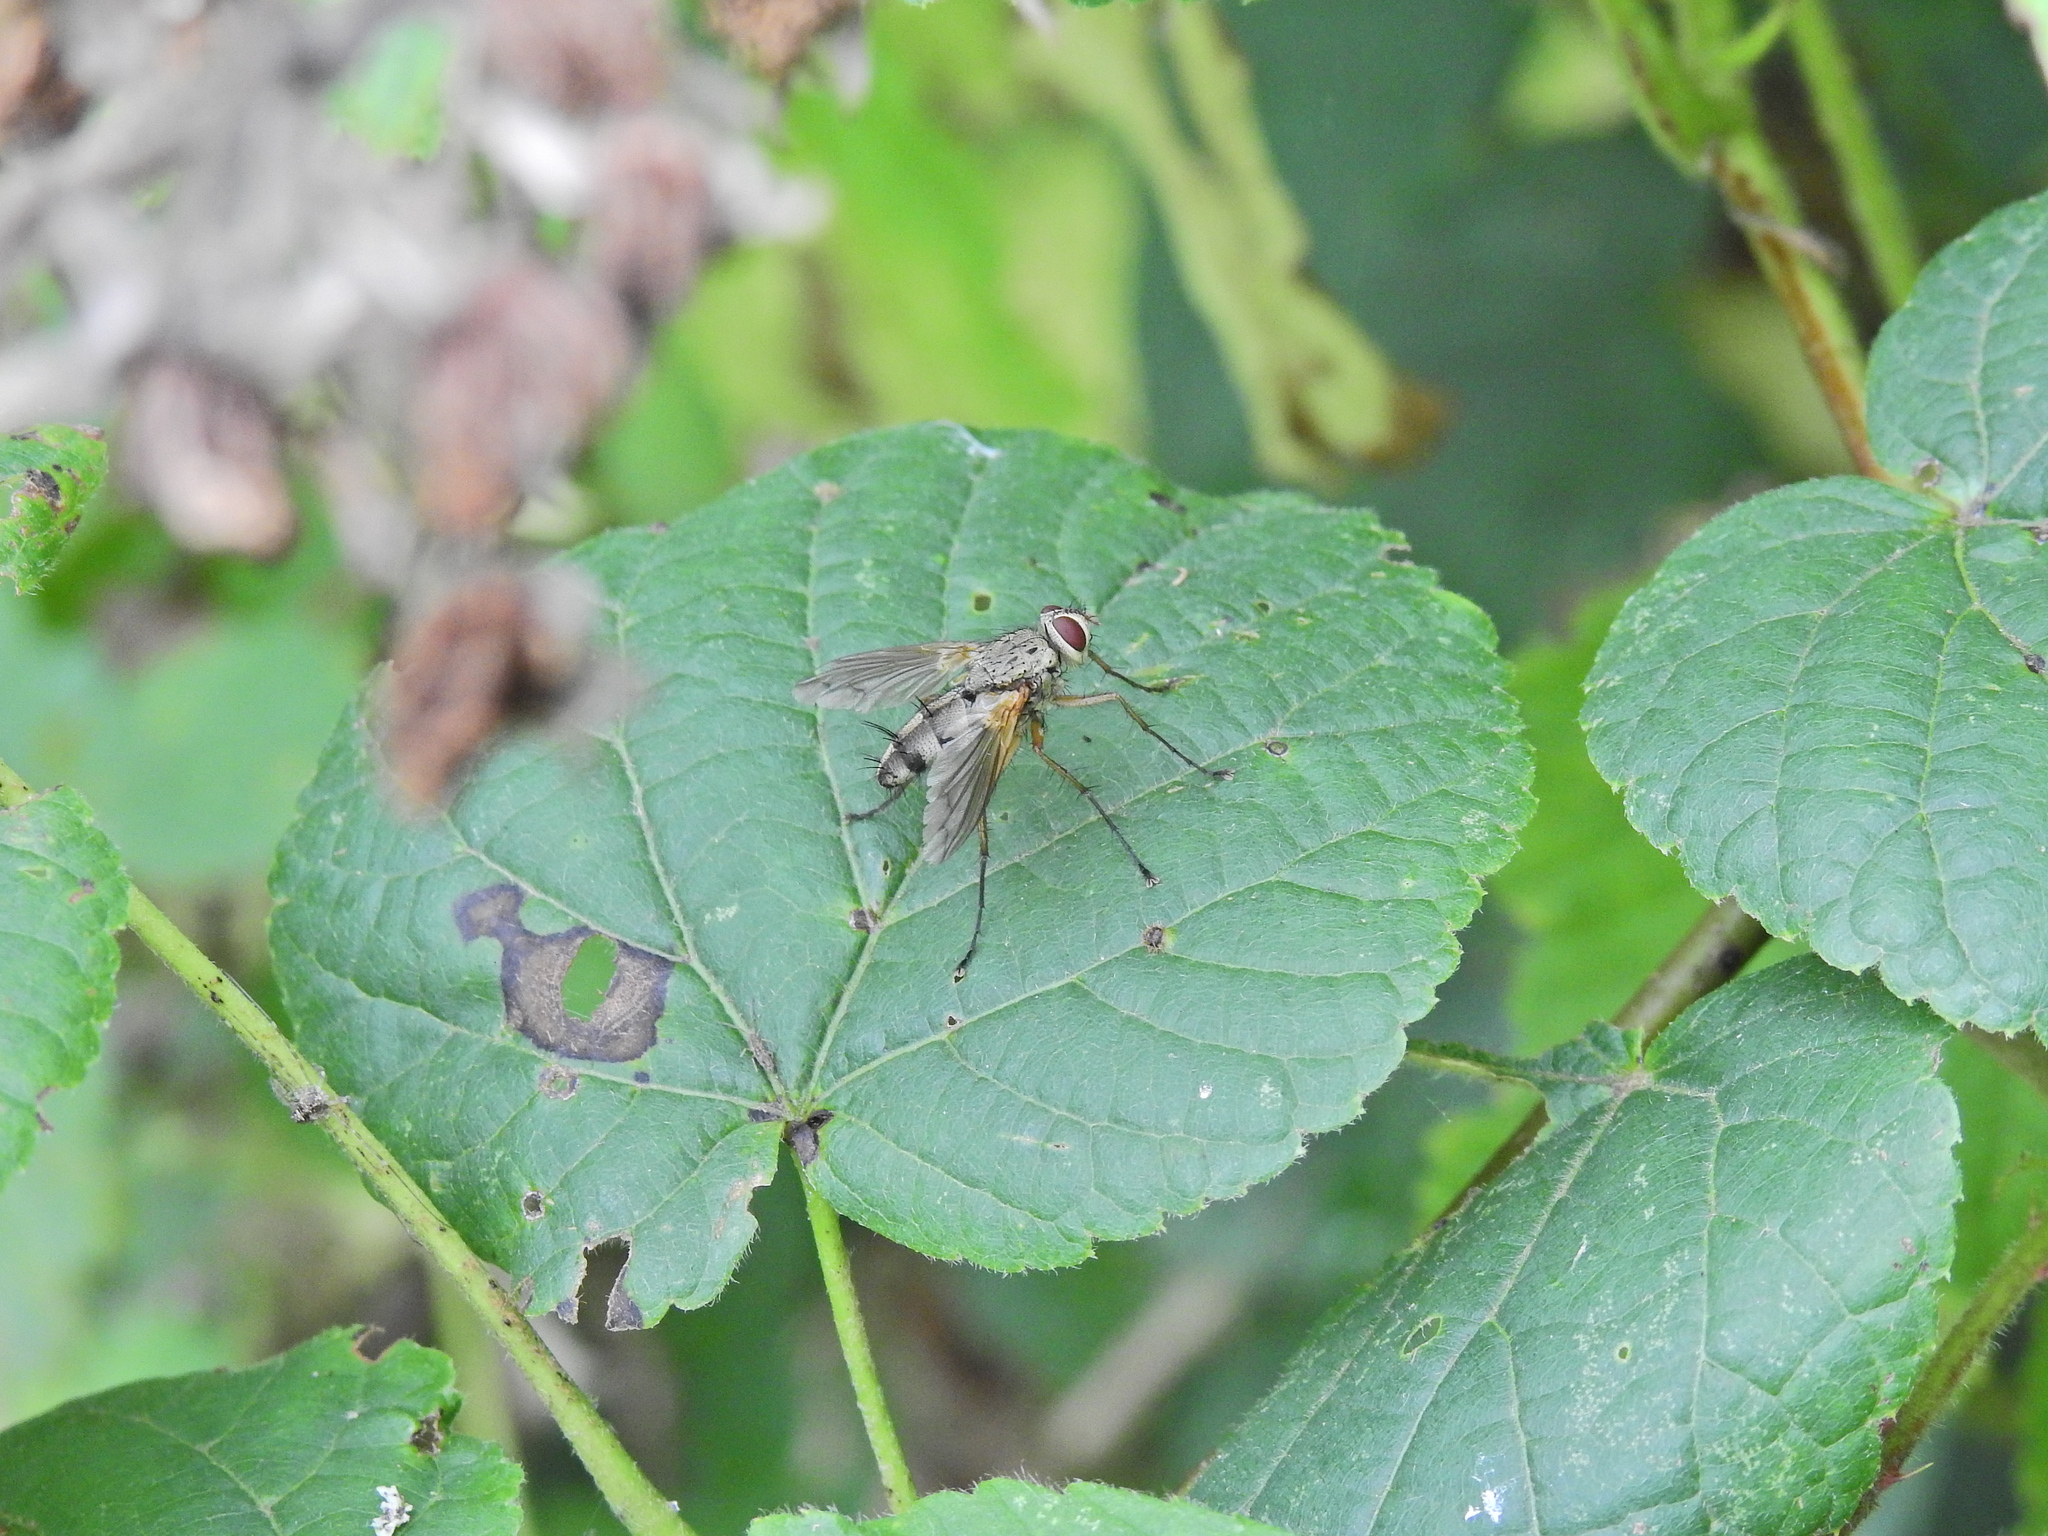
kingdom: Animalia
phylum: Arthropoda
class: Insecta
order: Diptera
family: Tachinidae
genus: Dexiosoma
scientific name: Dexiosoma caninum
